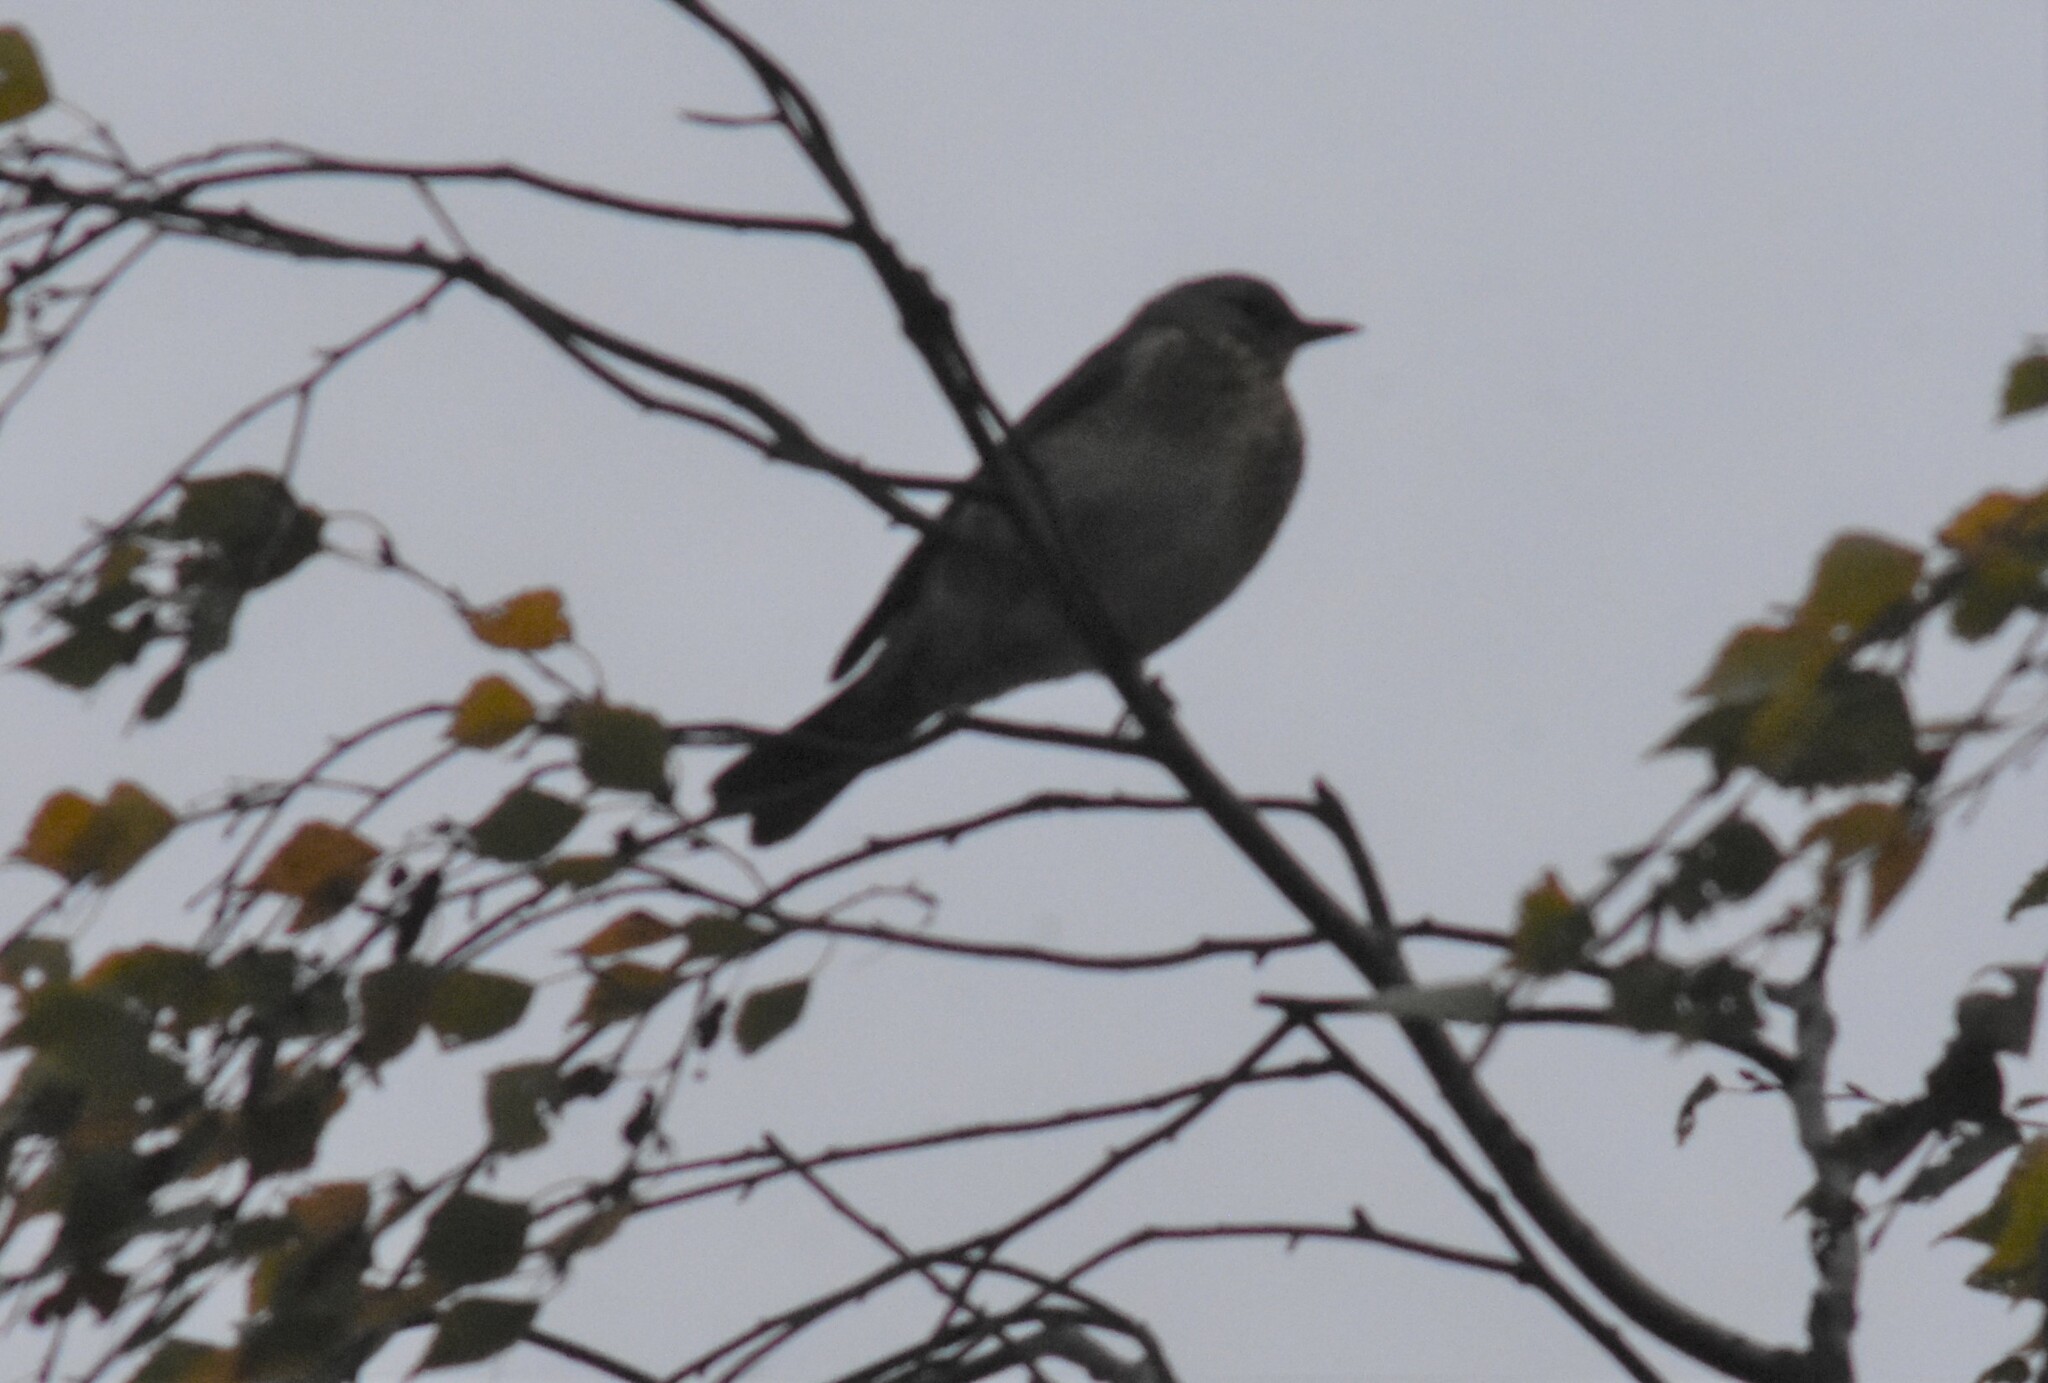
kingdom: Animalia
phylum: Chordata
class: Aves
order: Passeriformes
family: Turdidae
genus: Turdus
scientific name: Turdus pilaris
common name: Fieldfare
